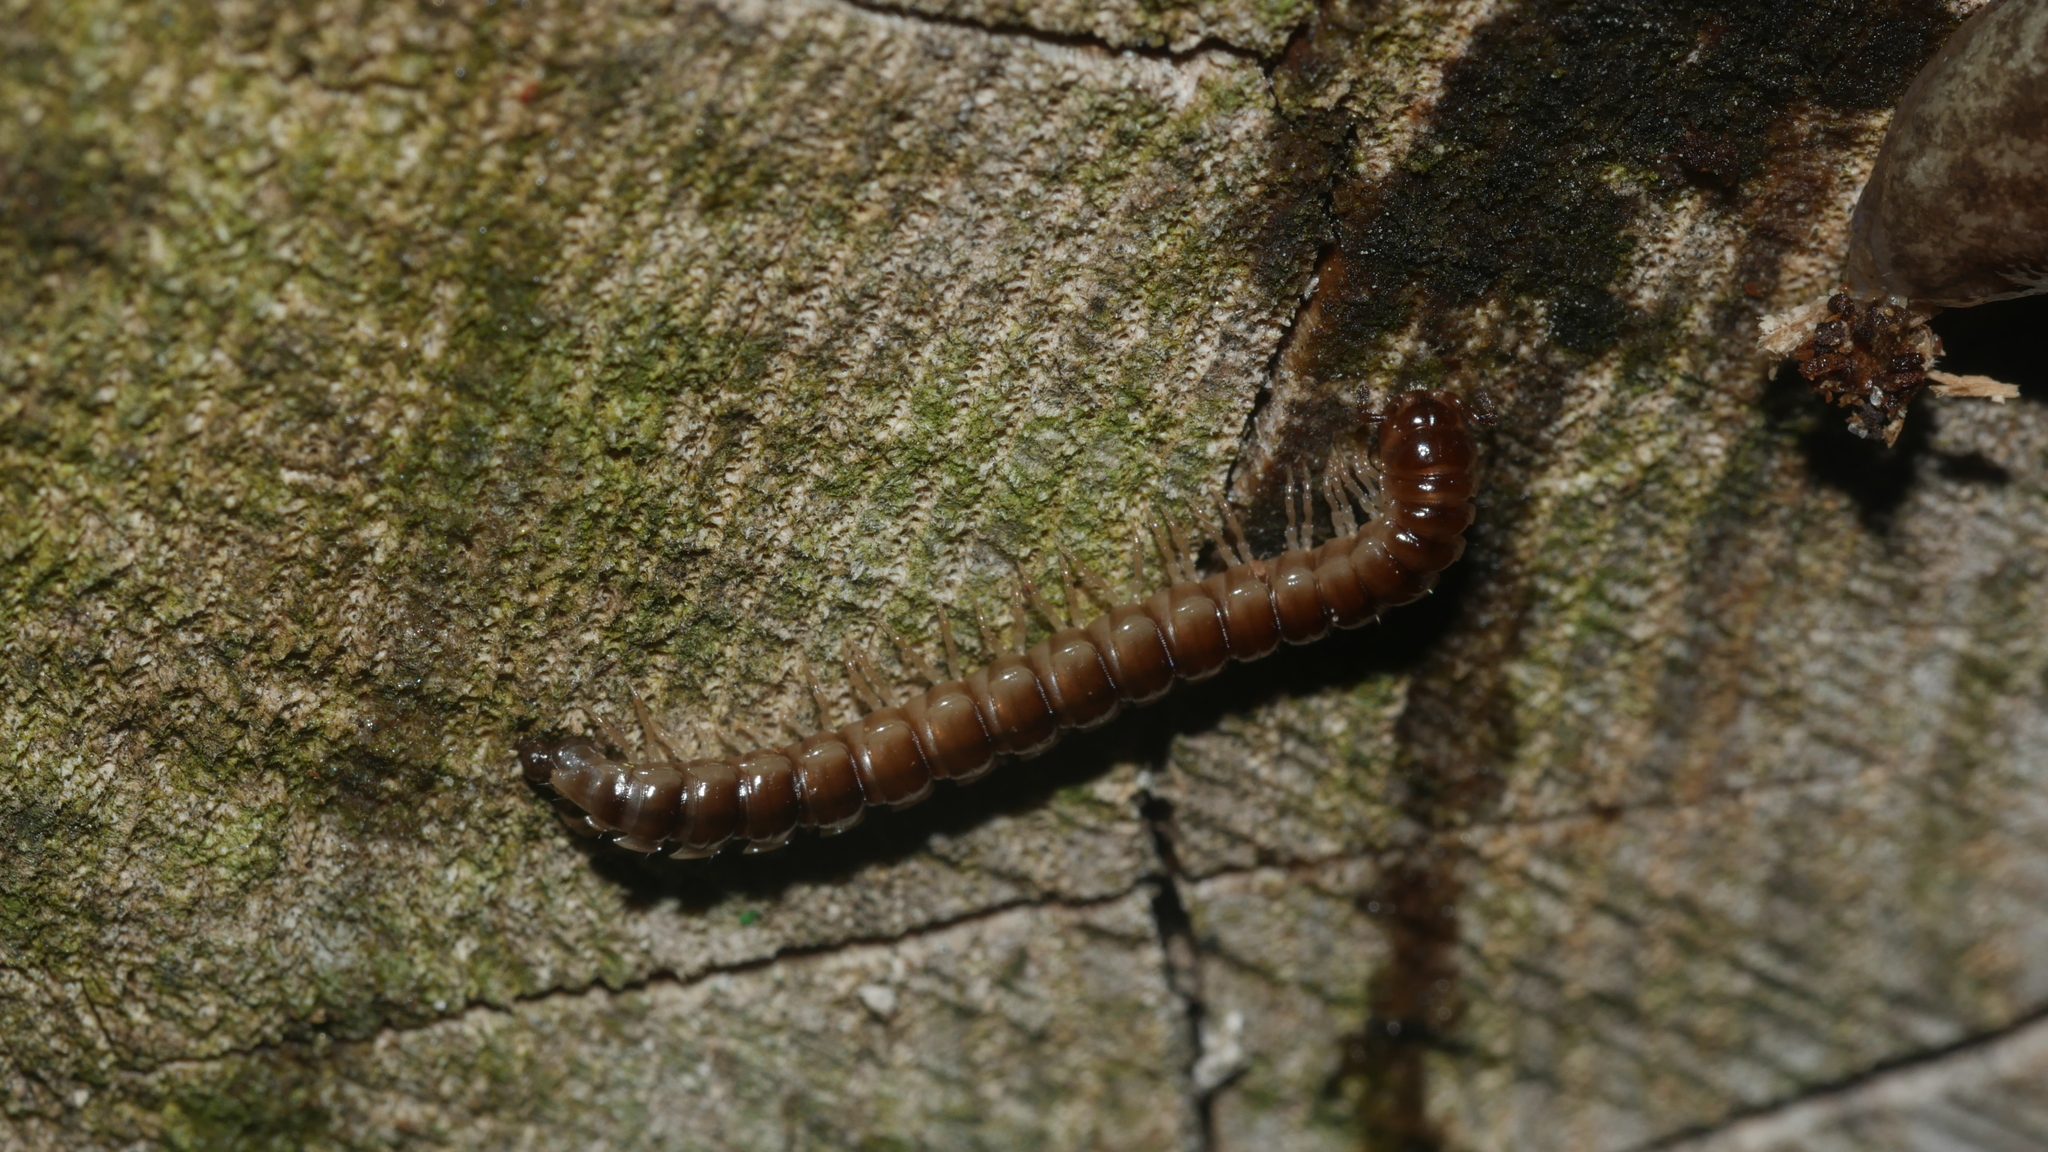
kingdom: Animalia
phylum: Arthropoda
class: Diplopoda
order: Polydesmida
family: Paradoxosomatidae
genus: Oxidus
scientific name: Oxidus gracilis
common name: Greenhouse millipede
